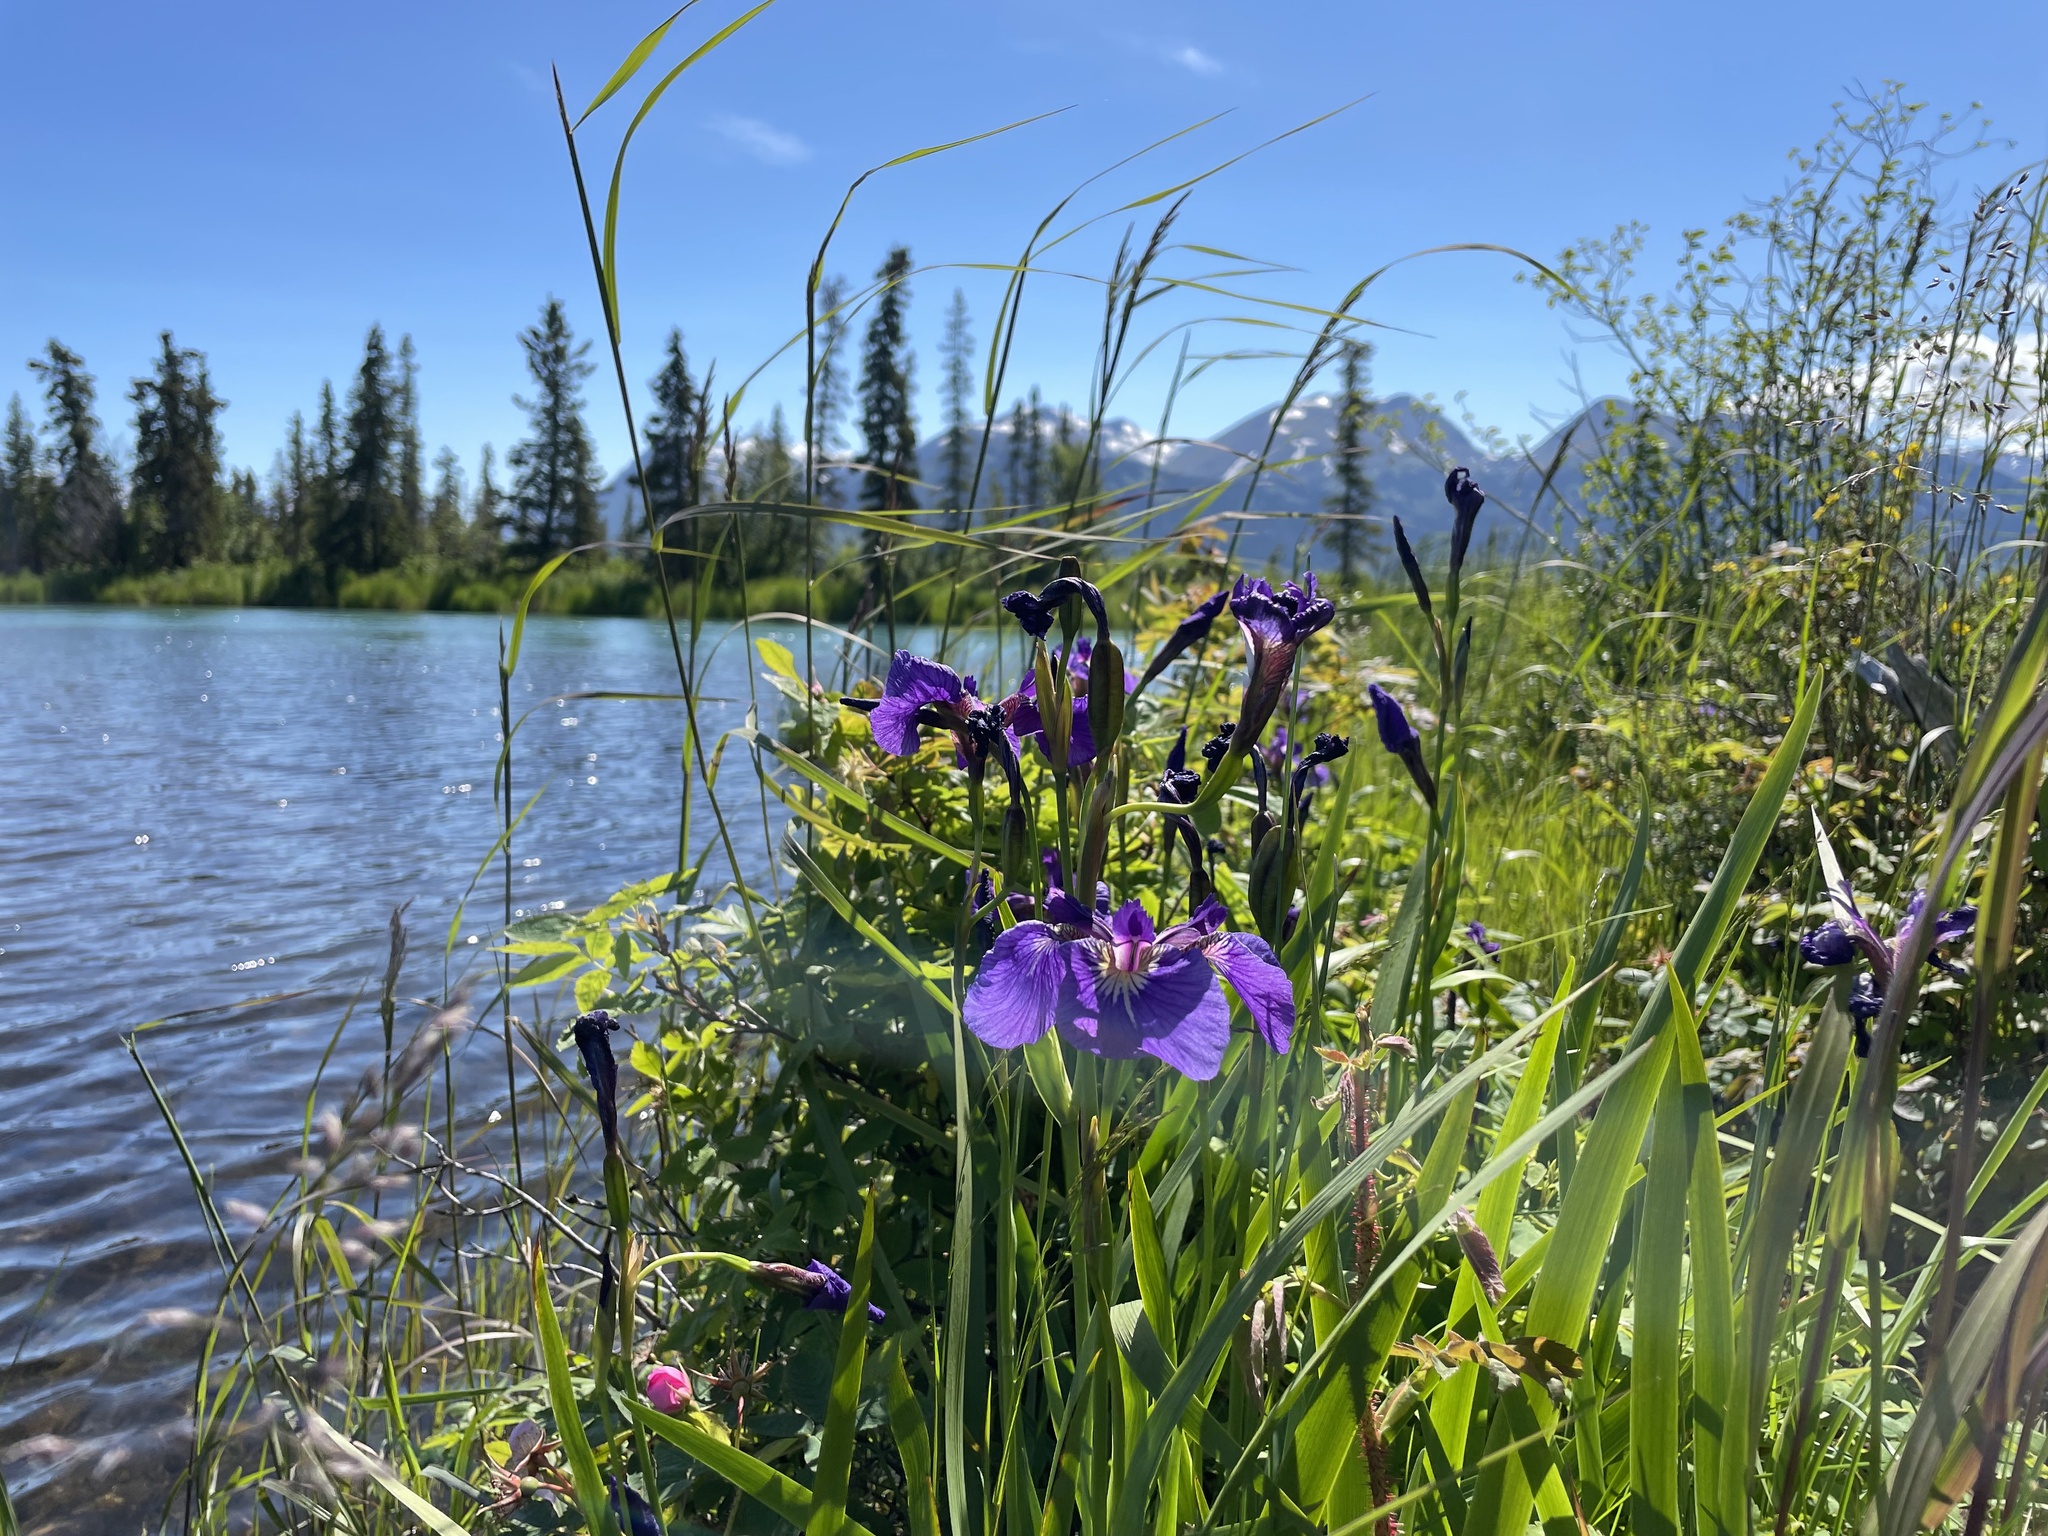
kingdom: Plantae
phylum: Tracheophyta
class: Liliopsida
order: Asparagales
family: Iridaceae
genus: Iris
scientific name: Iris setosa
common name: Arctic blue flag
